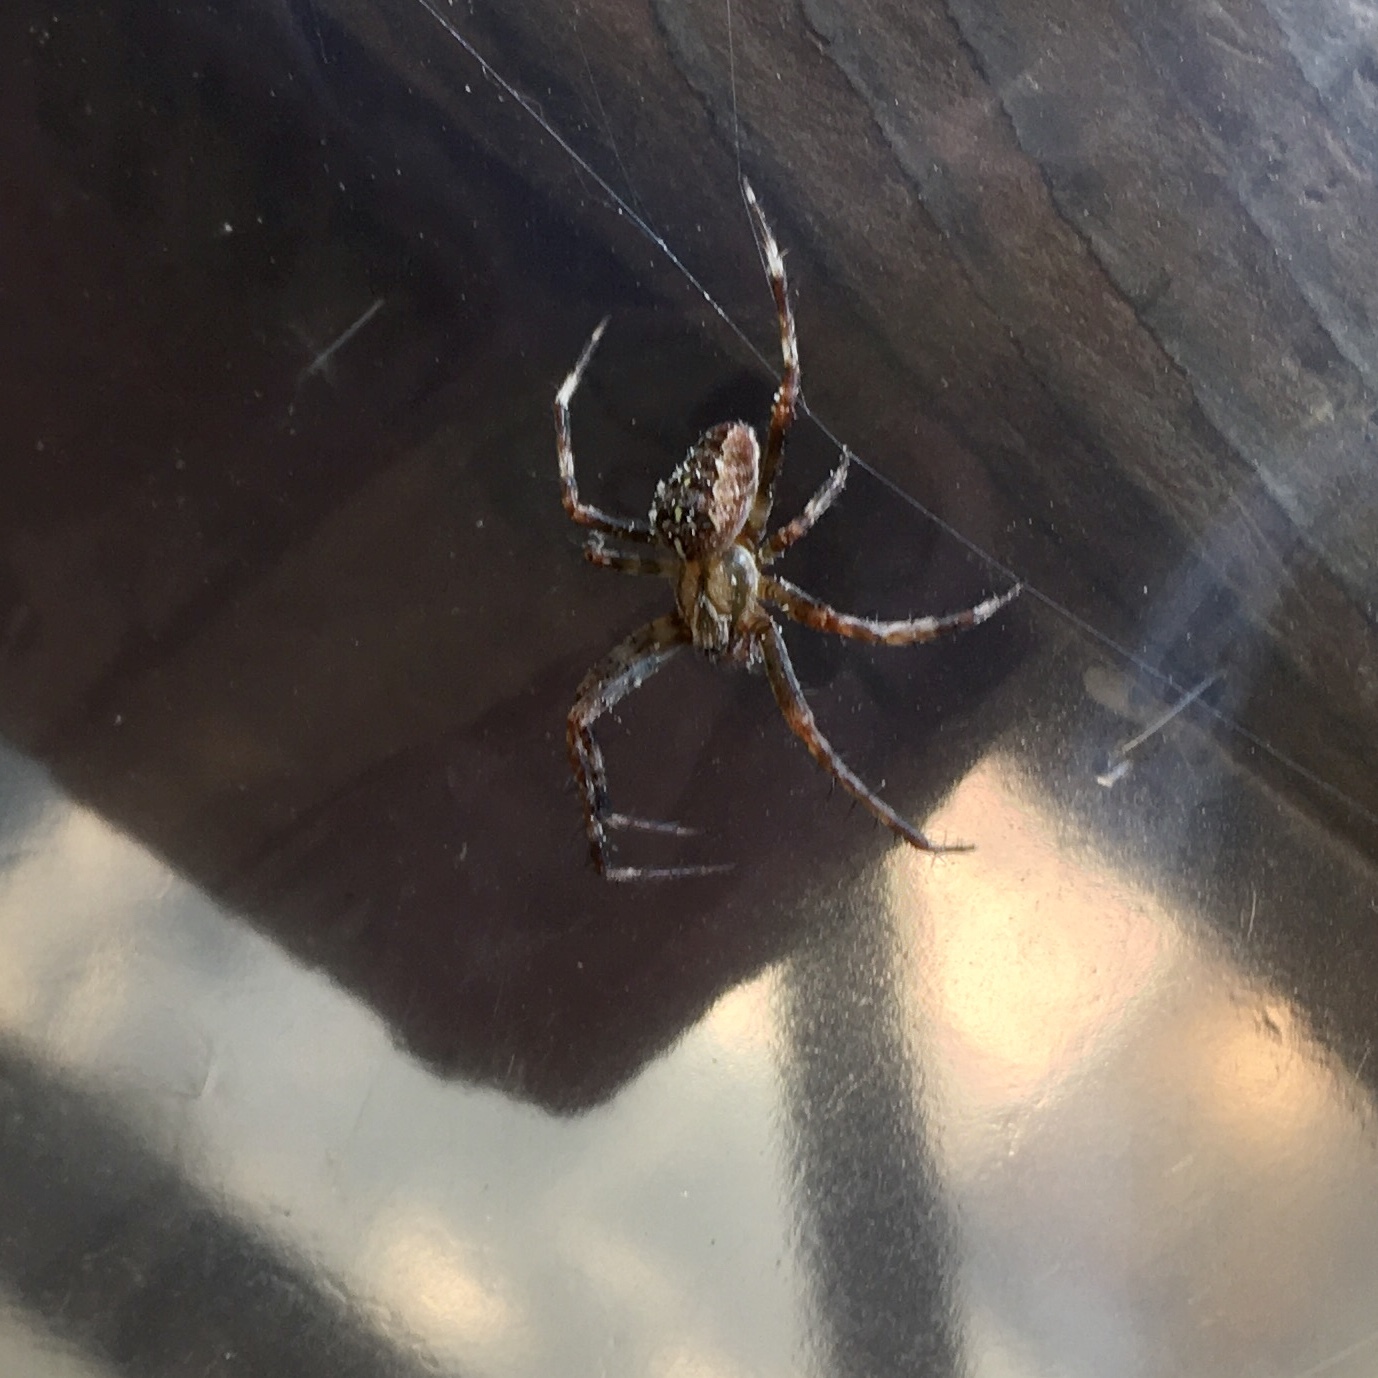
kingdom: Animalia
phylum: Arthropoda
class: Arachnida
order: Araneae
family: Araneidae
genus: Araneus
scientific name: Araneus diadematus
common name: Cross orbweaver
